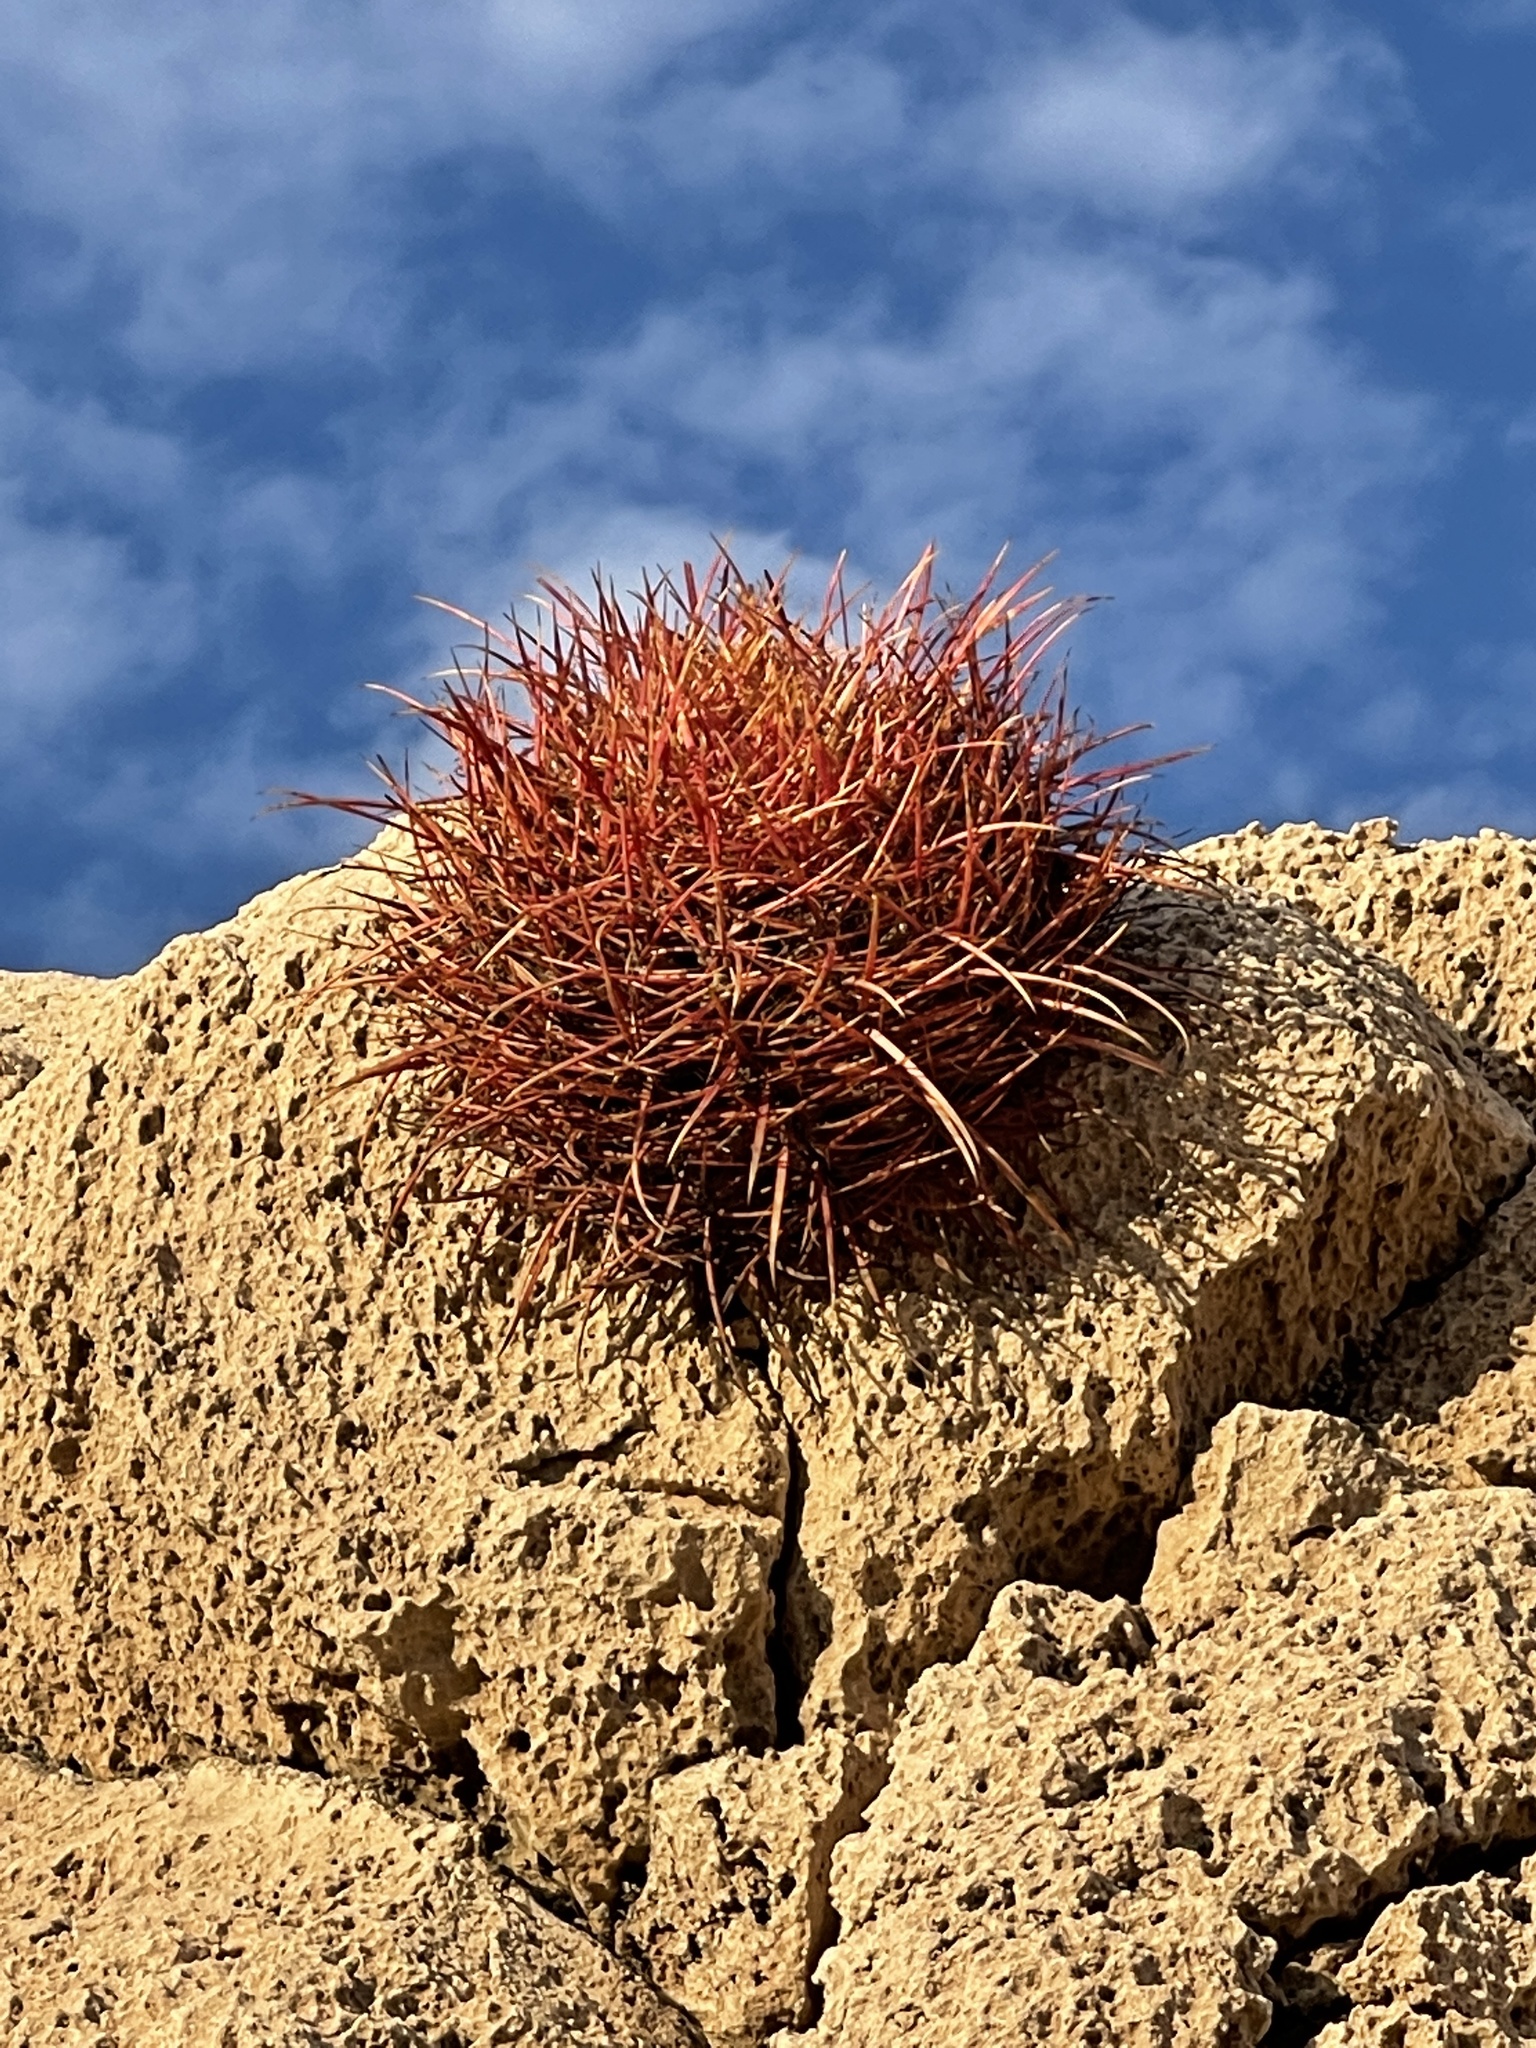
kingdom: Plantae
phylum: Tracheophyta
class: Magnoliopsida
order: Caryophyllales
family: Cactaceae
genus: Ferocactus
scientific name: Ferocactus cylindraceus
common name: California barrel cactus
